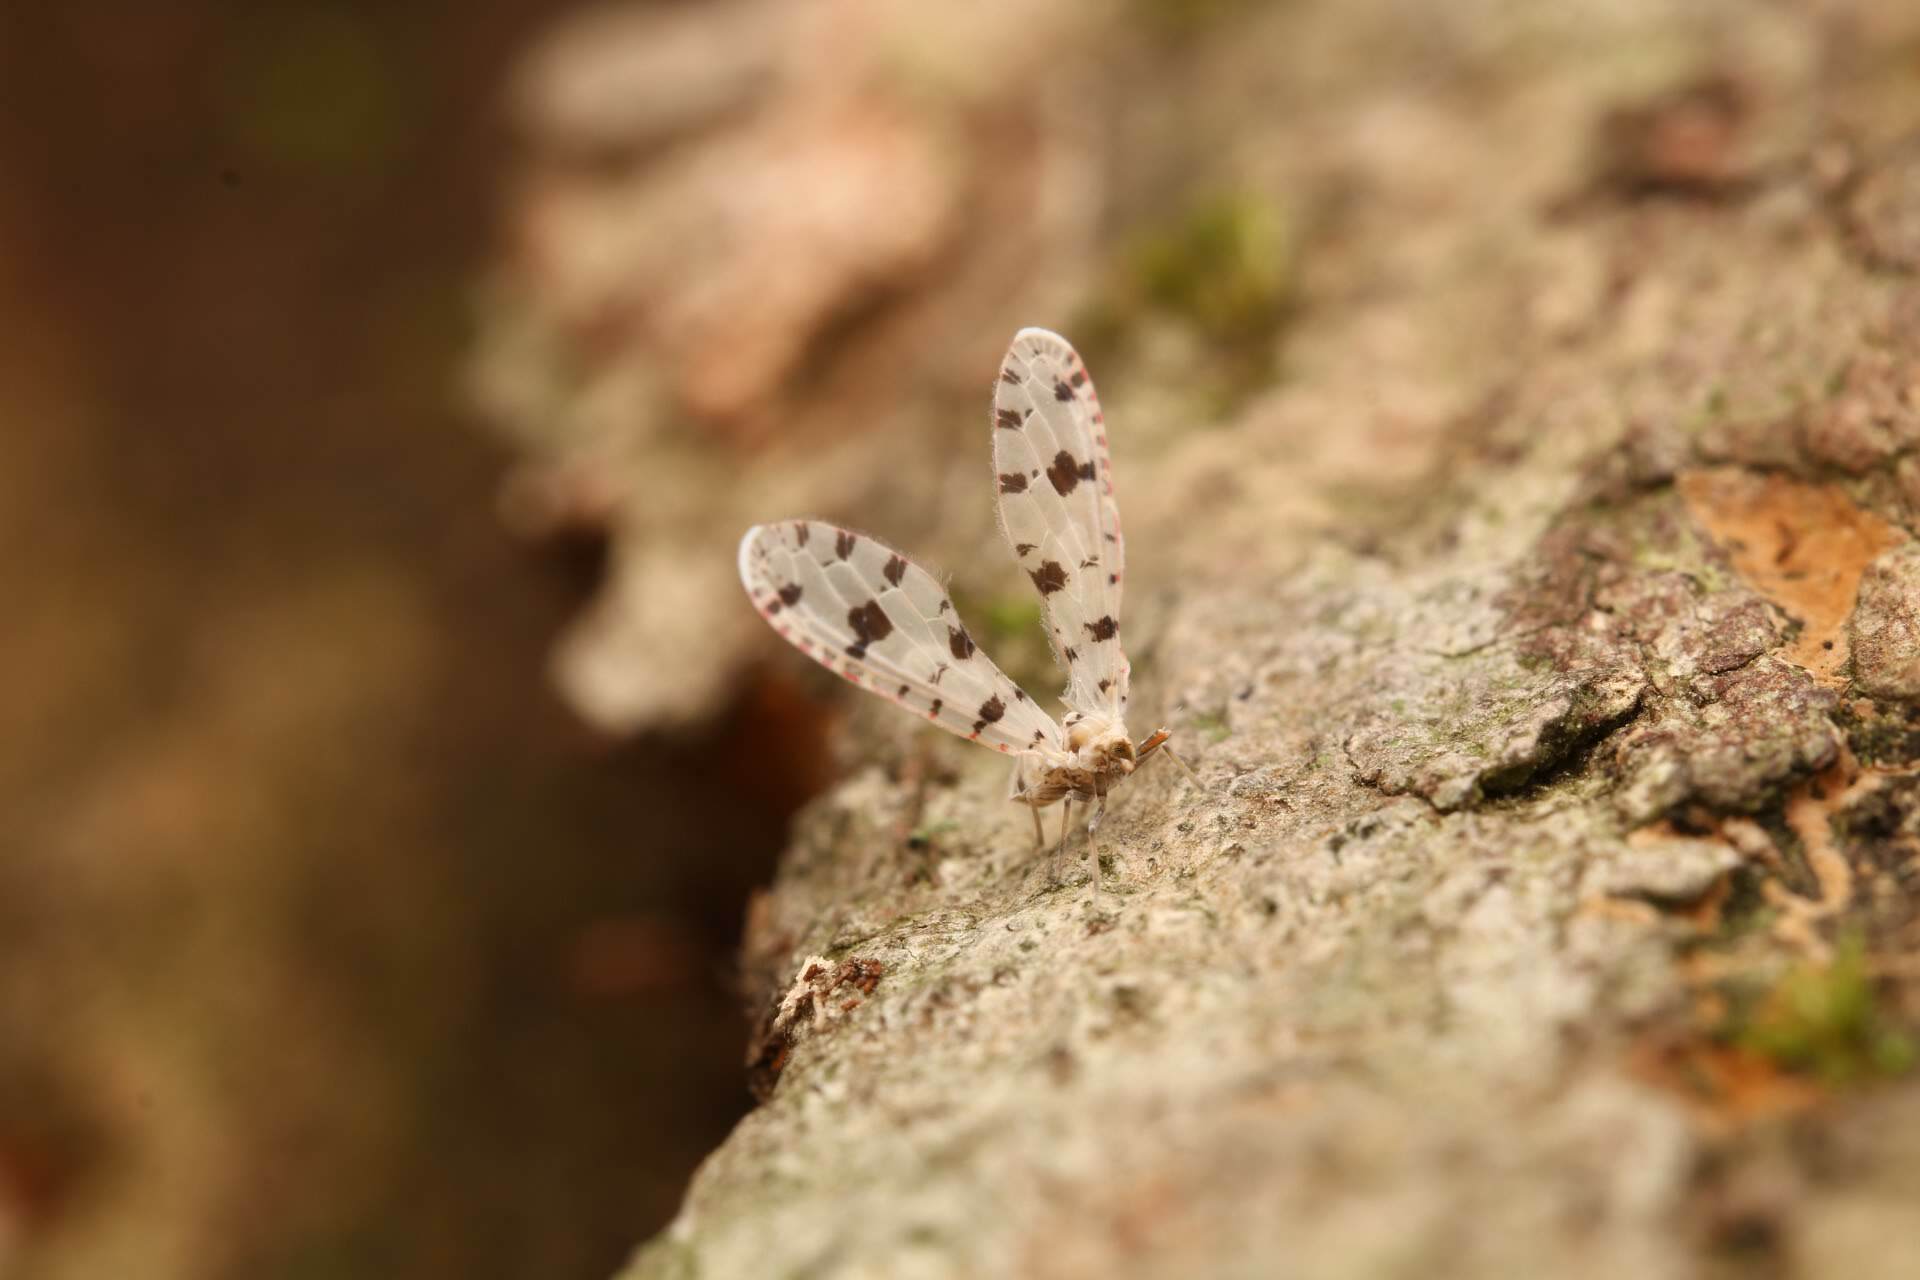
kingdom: Animalia
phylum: Arthropoda
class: Insecta
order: Hemiptera
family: Derbidae
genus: Sikaiana
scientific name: Sikaiana harti
